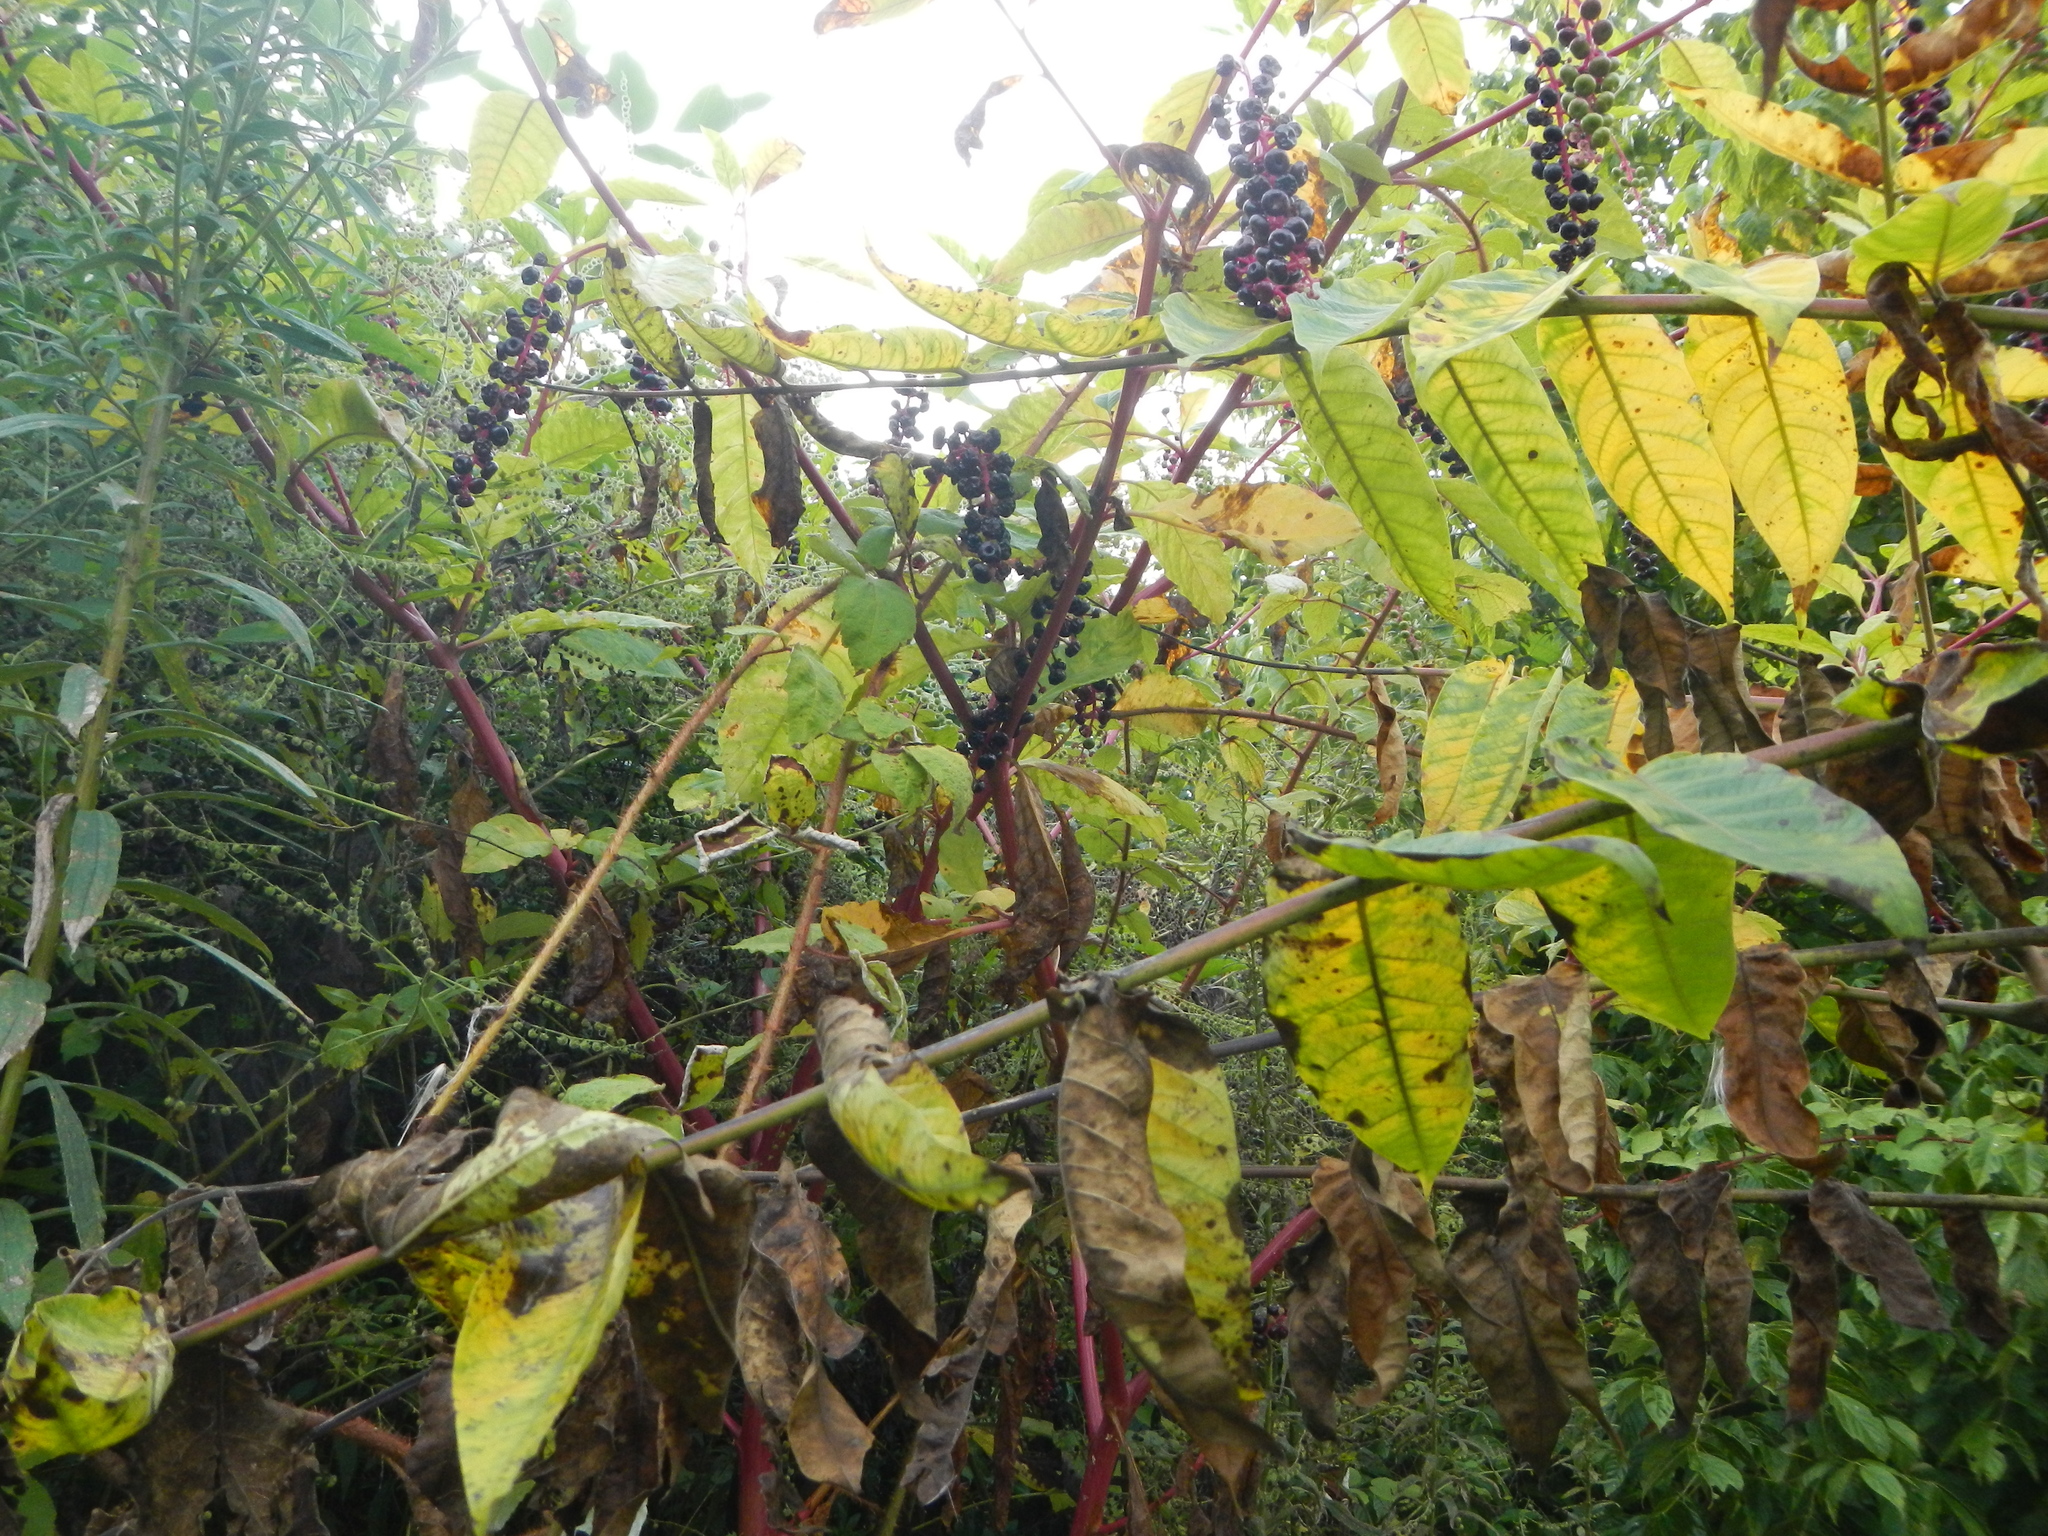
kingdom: Plantae
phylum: Tracheophyta
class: Magnoliopsida
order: Caryophyllales
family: Phytolaccaceae
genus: Phytolacca
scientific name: Phytolacca americana
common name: American pokeweed
